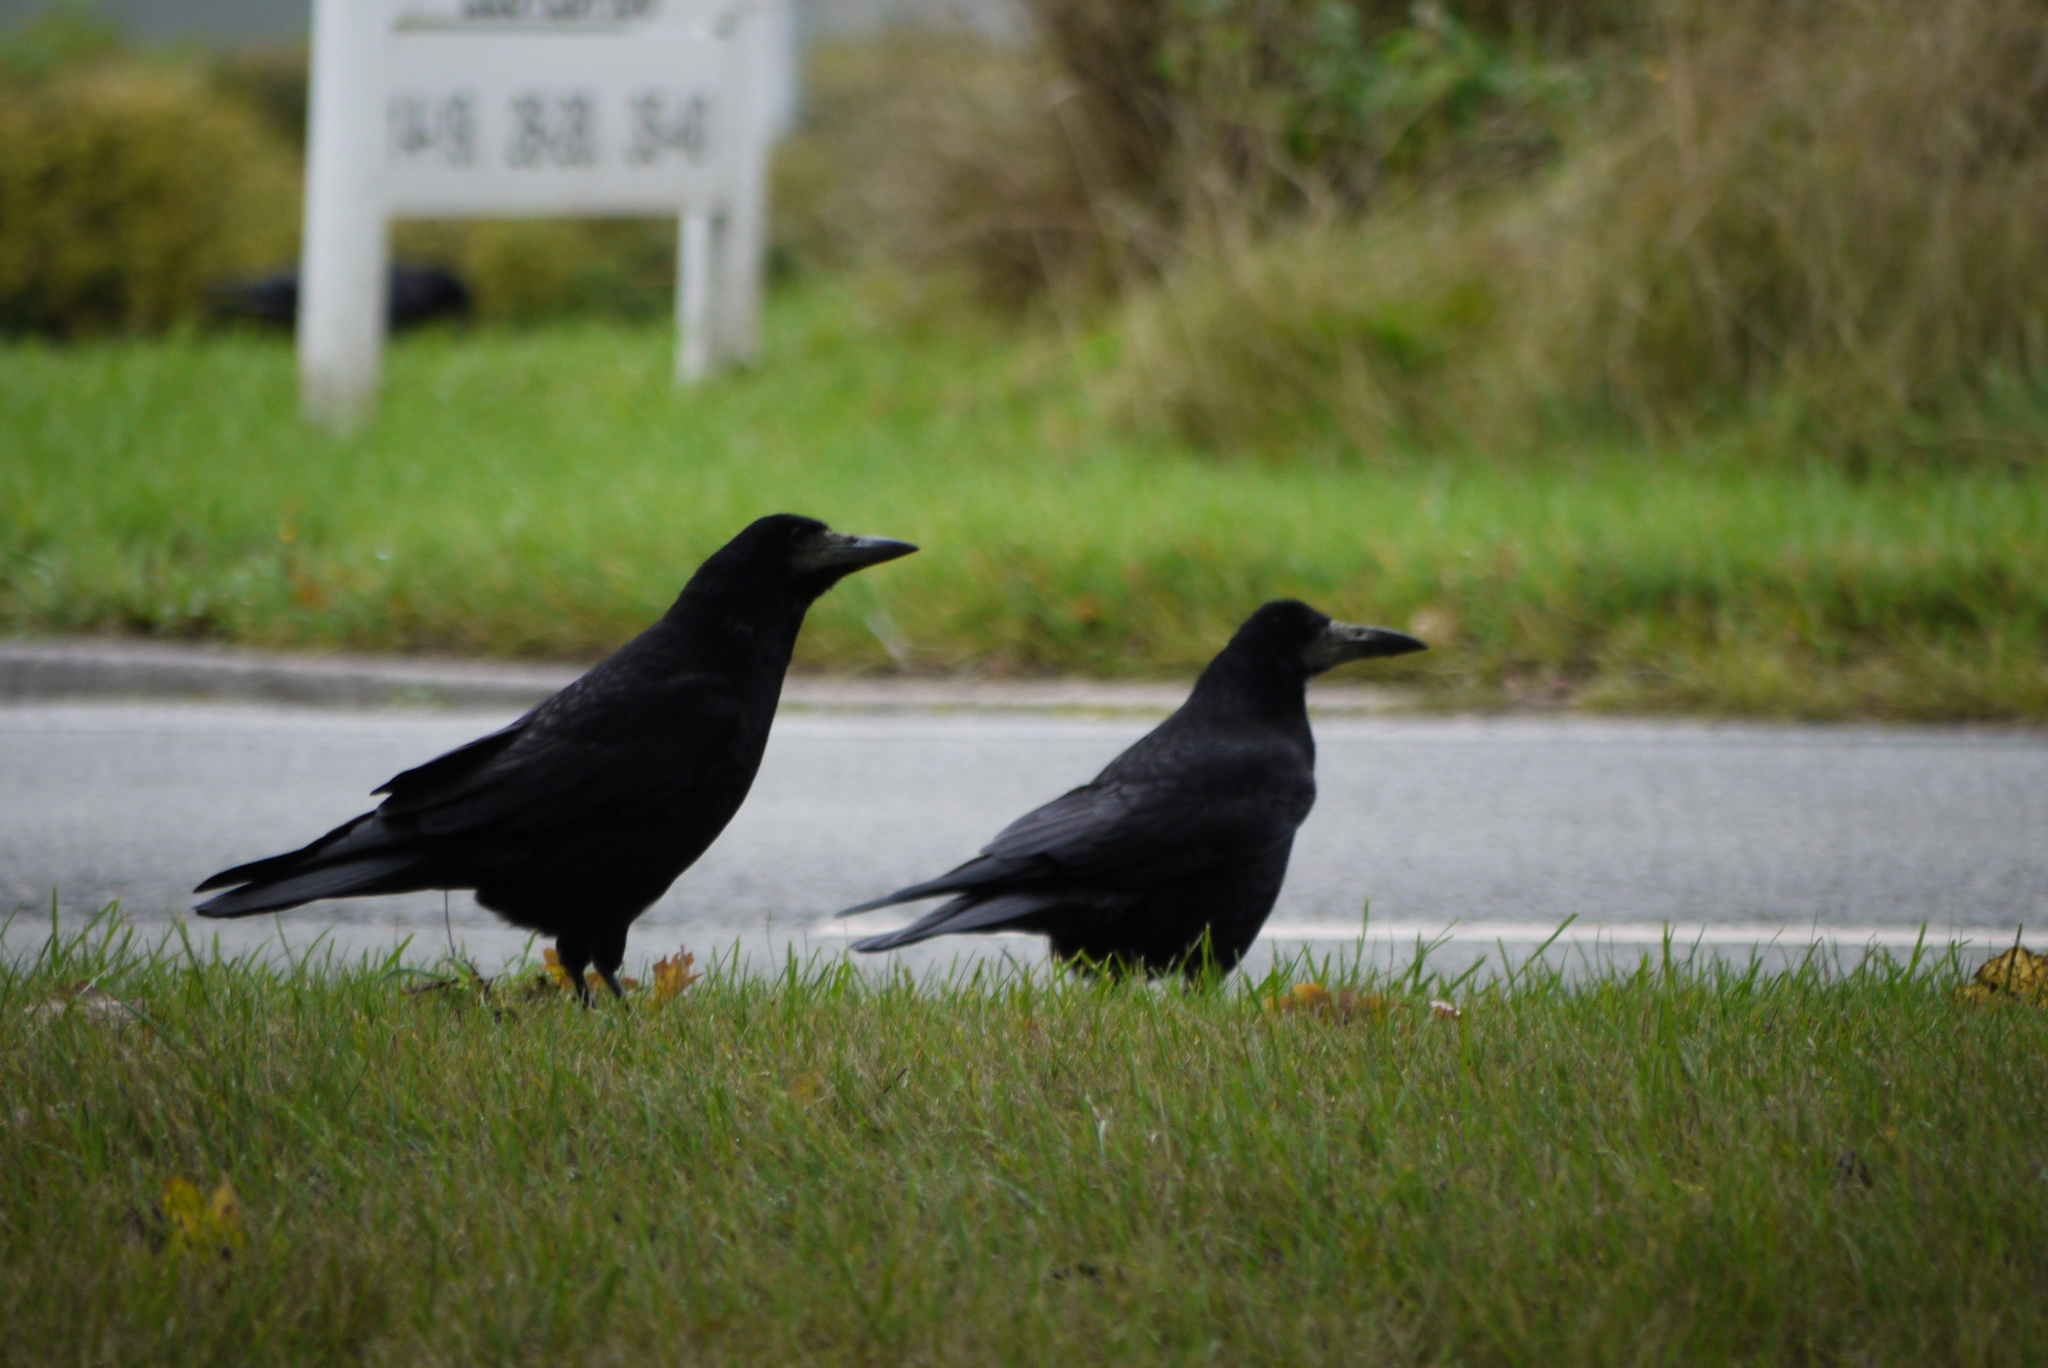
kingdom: Animalia
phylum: Chordata
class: Aves
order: Passeriformes
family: Corvidae
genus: Corvus
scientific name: Corvus frugilegus
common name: Rook
